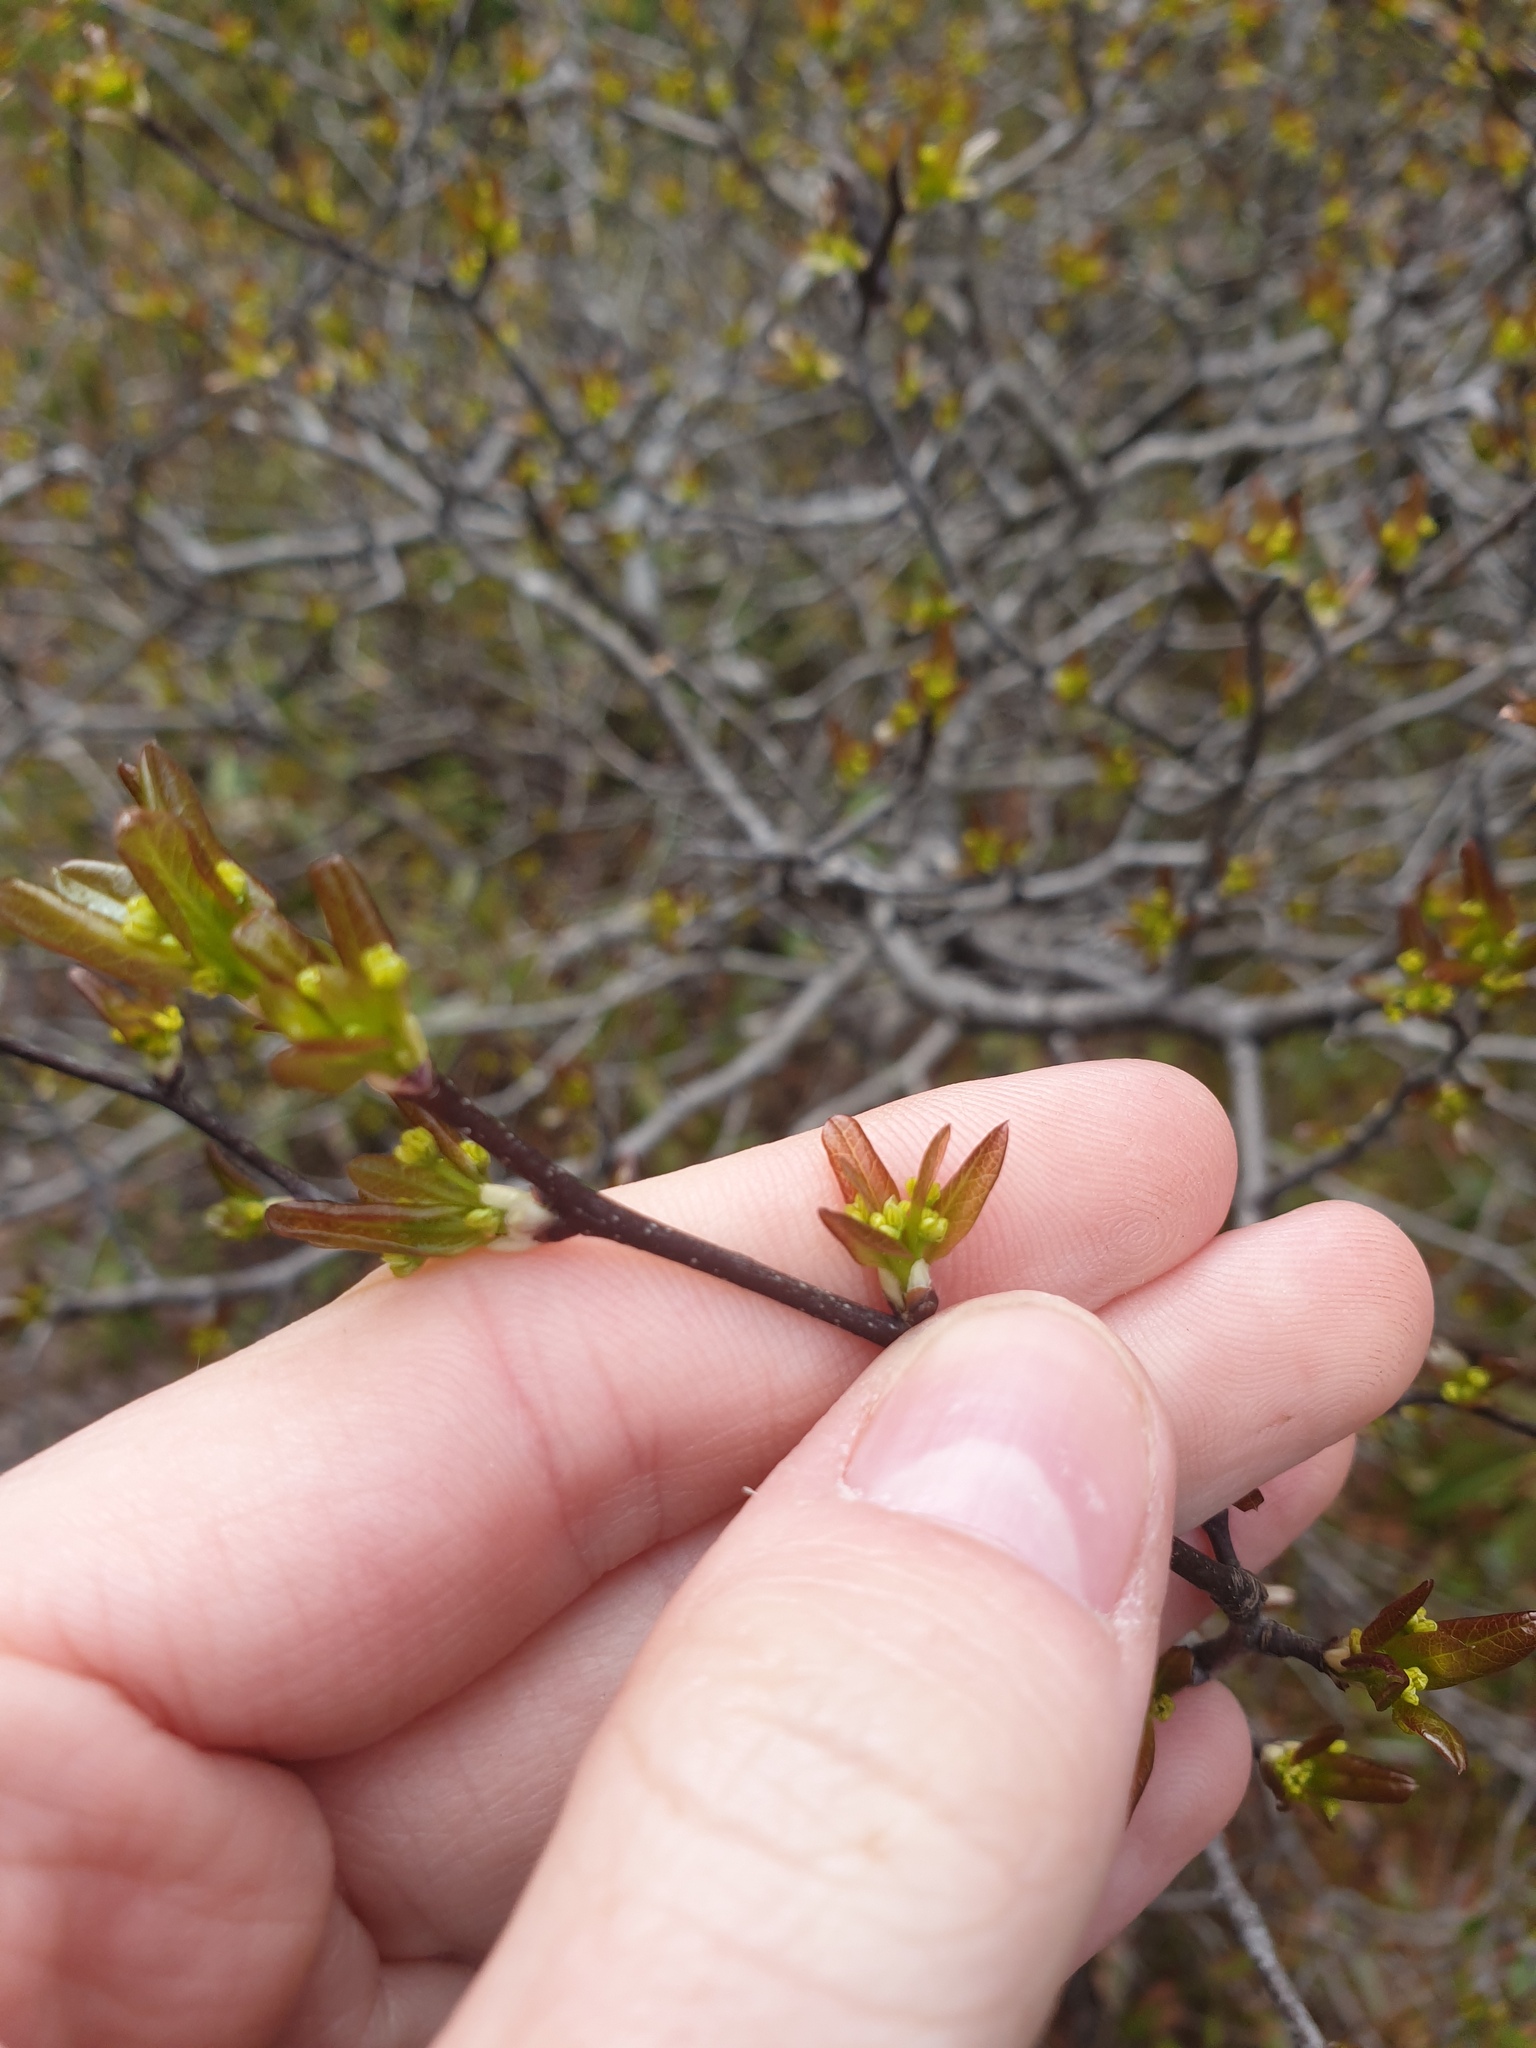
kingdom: Plantae
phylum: Tracheophyta
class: Magnoliopsida
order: Aquifoliales
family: Aquifoliaceae
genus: Ilex
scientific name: Ilex mucronata
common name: Catberry
